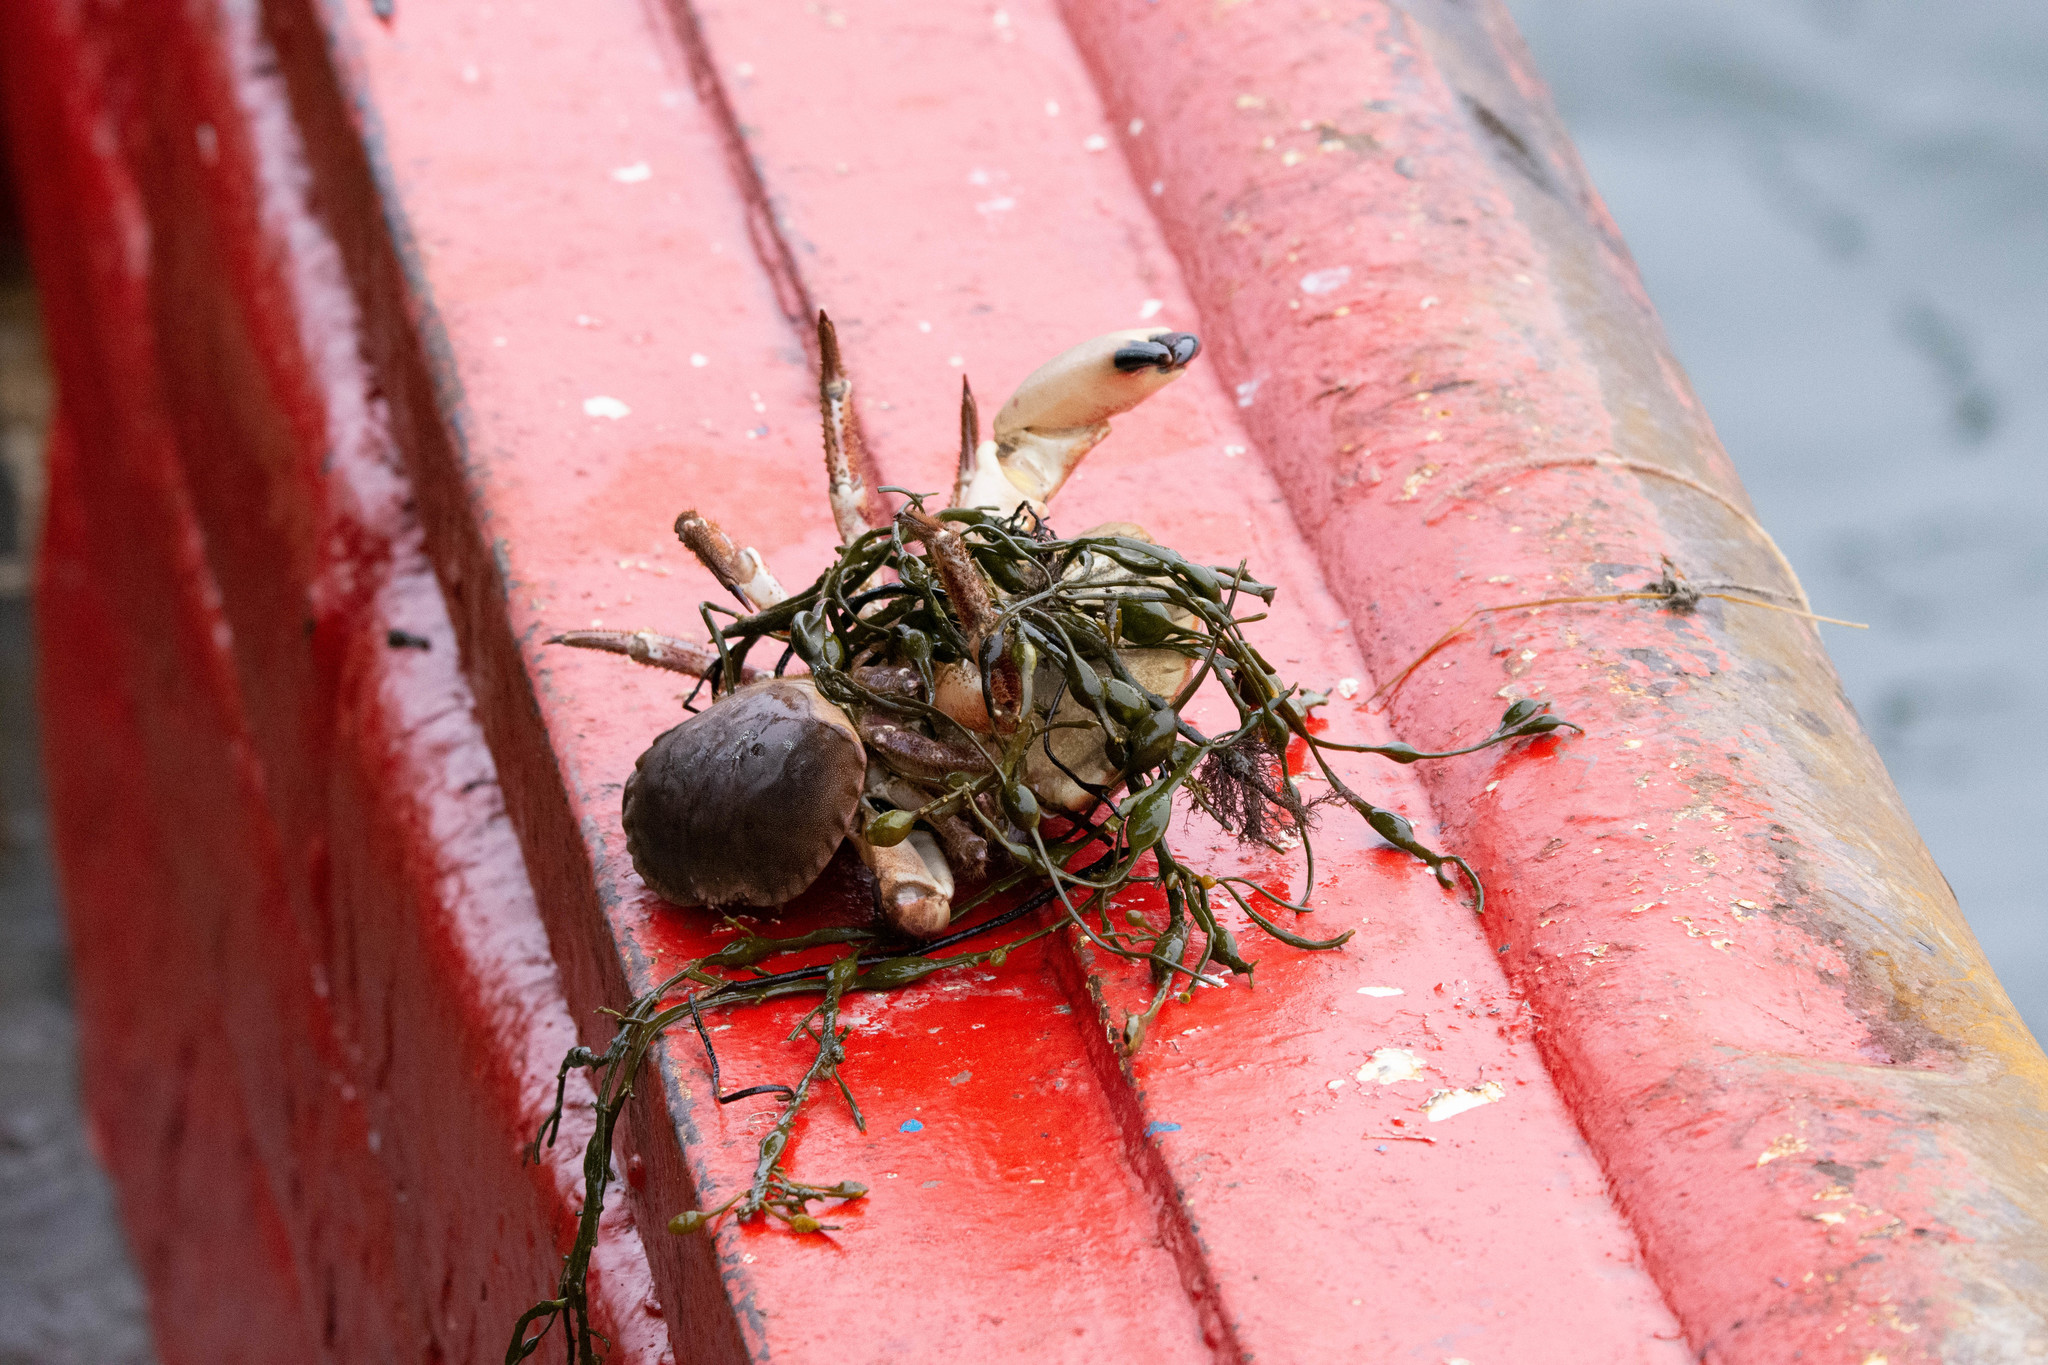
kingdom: Animalia
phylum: Arthropoda
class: Malacostraca
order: Decapoda
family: Cancridae
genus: Cancer
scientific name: Cancer pagurus
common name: Edible crab
